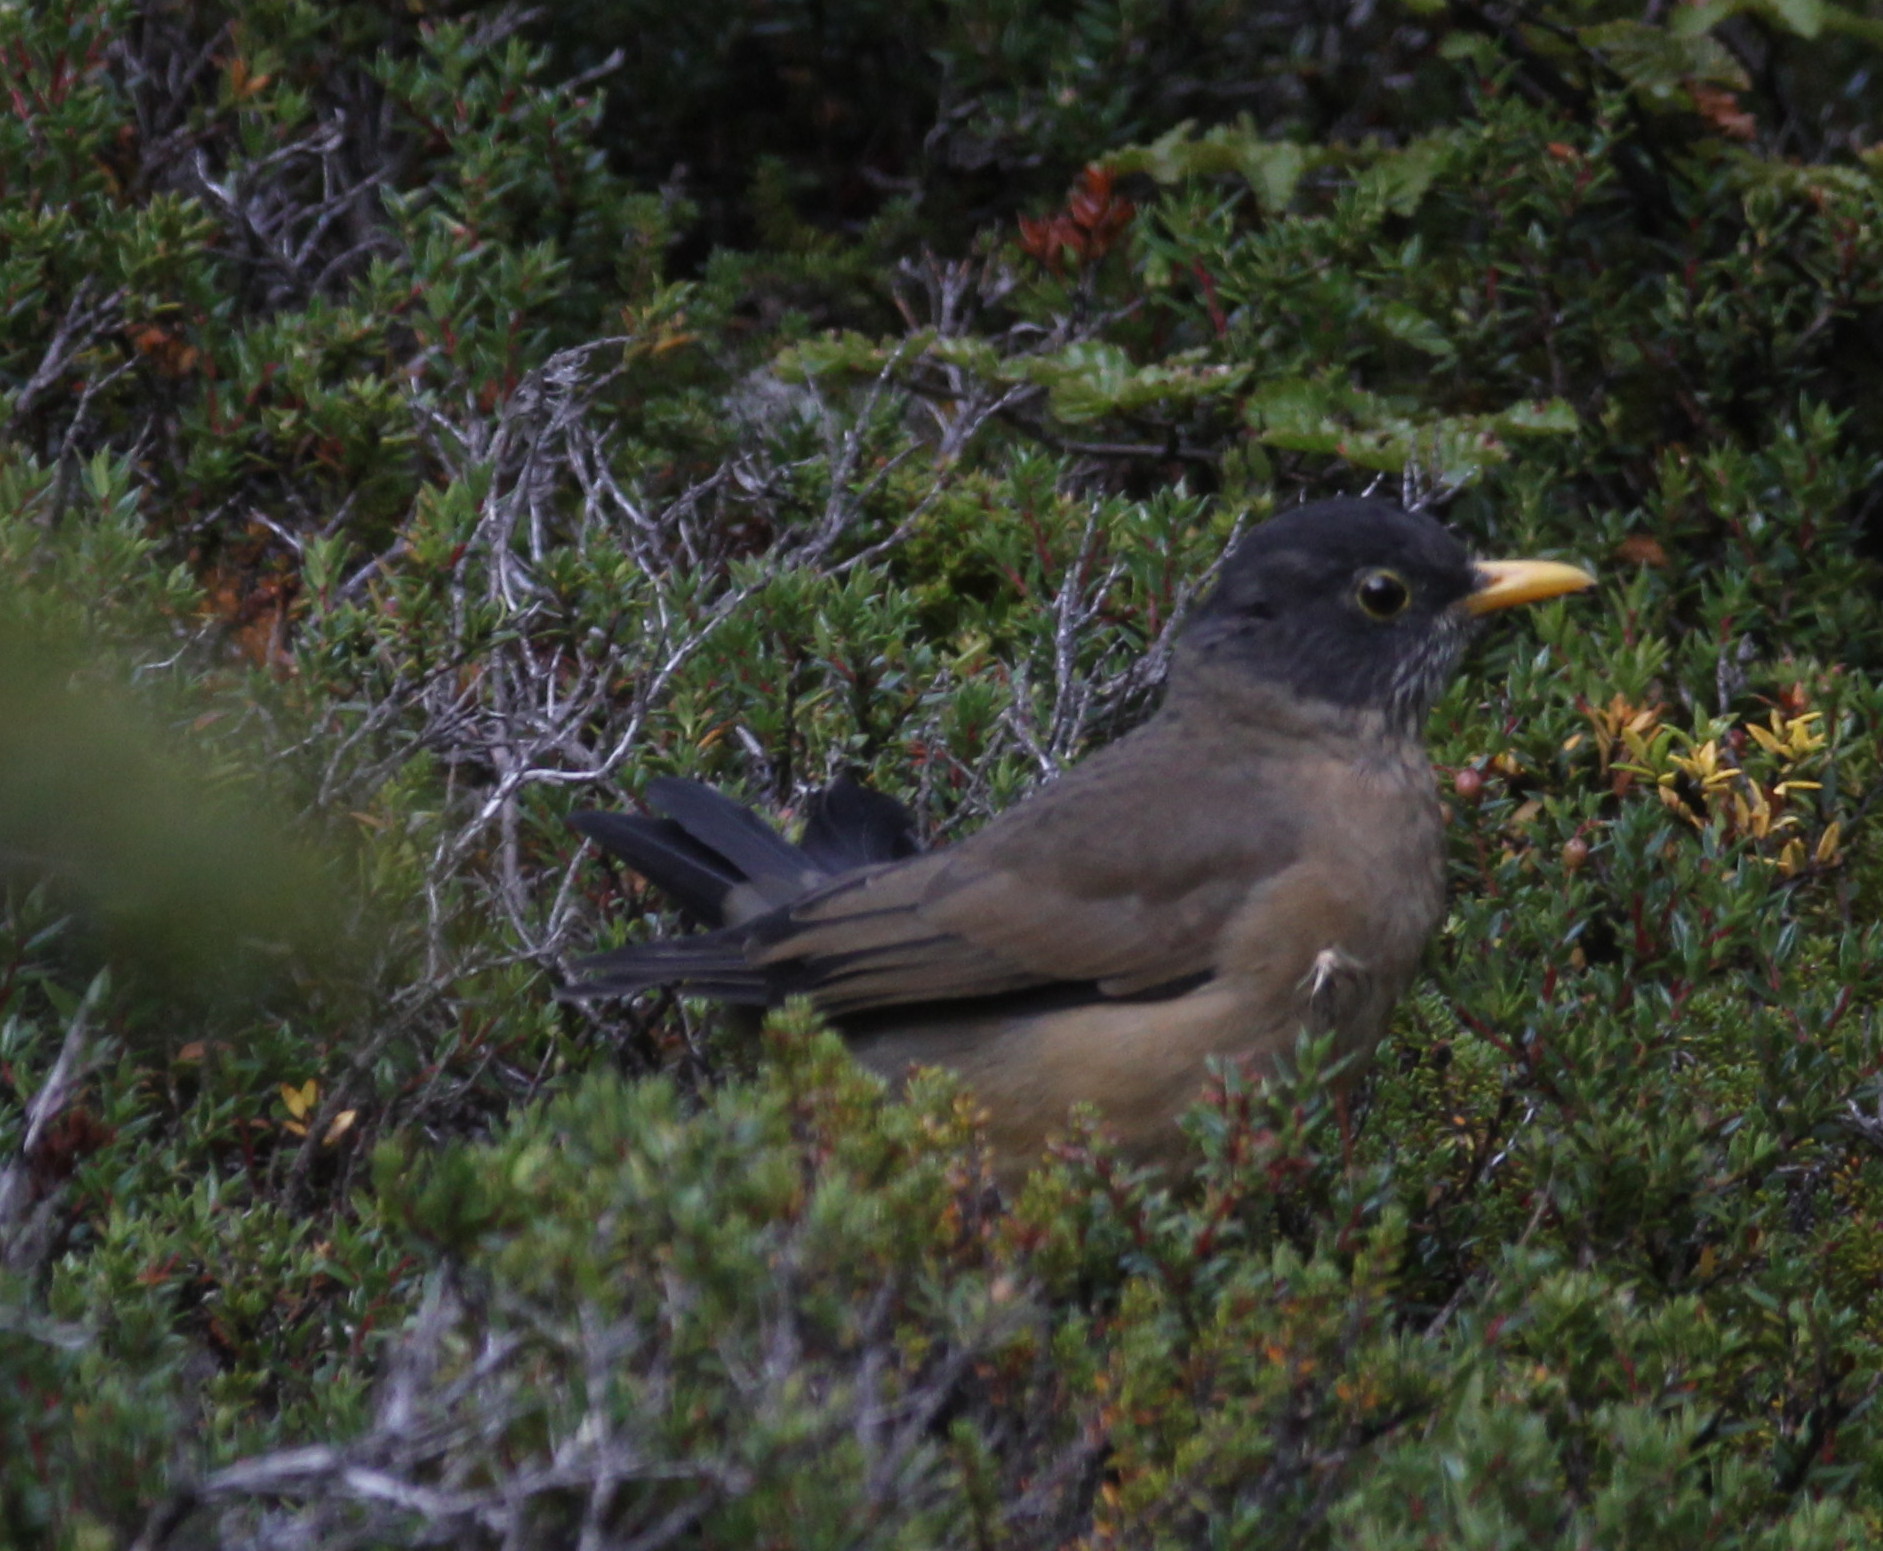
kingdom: Animalia
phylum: Chordata
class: Aves
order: Passeriformes
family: Turdidae
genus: Turdus
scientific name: Turdus falcklandii
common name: Austral thrush
